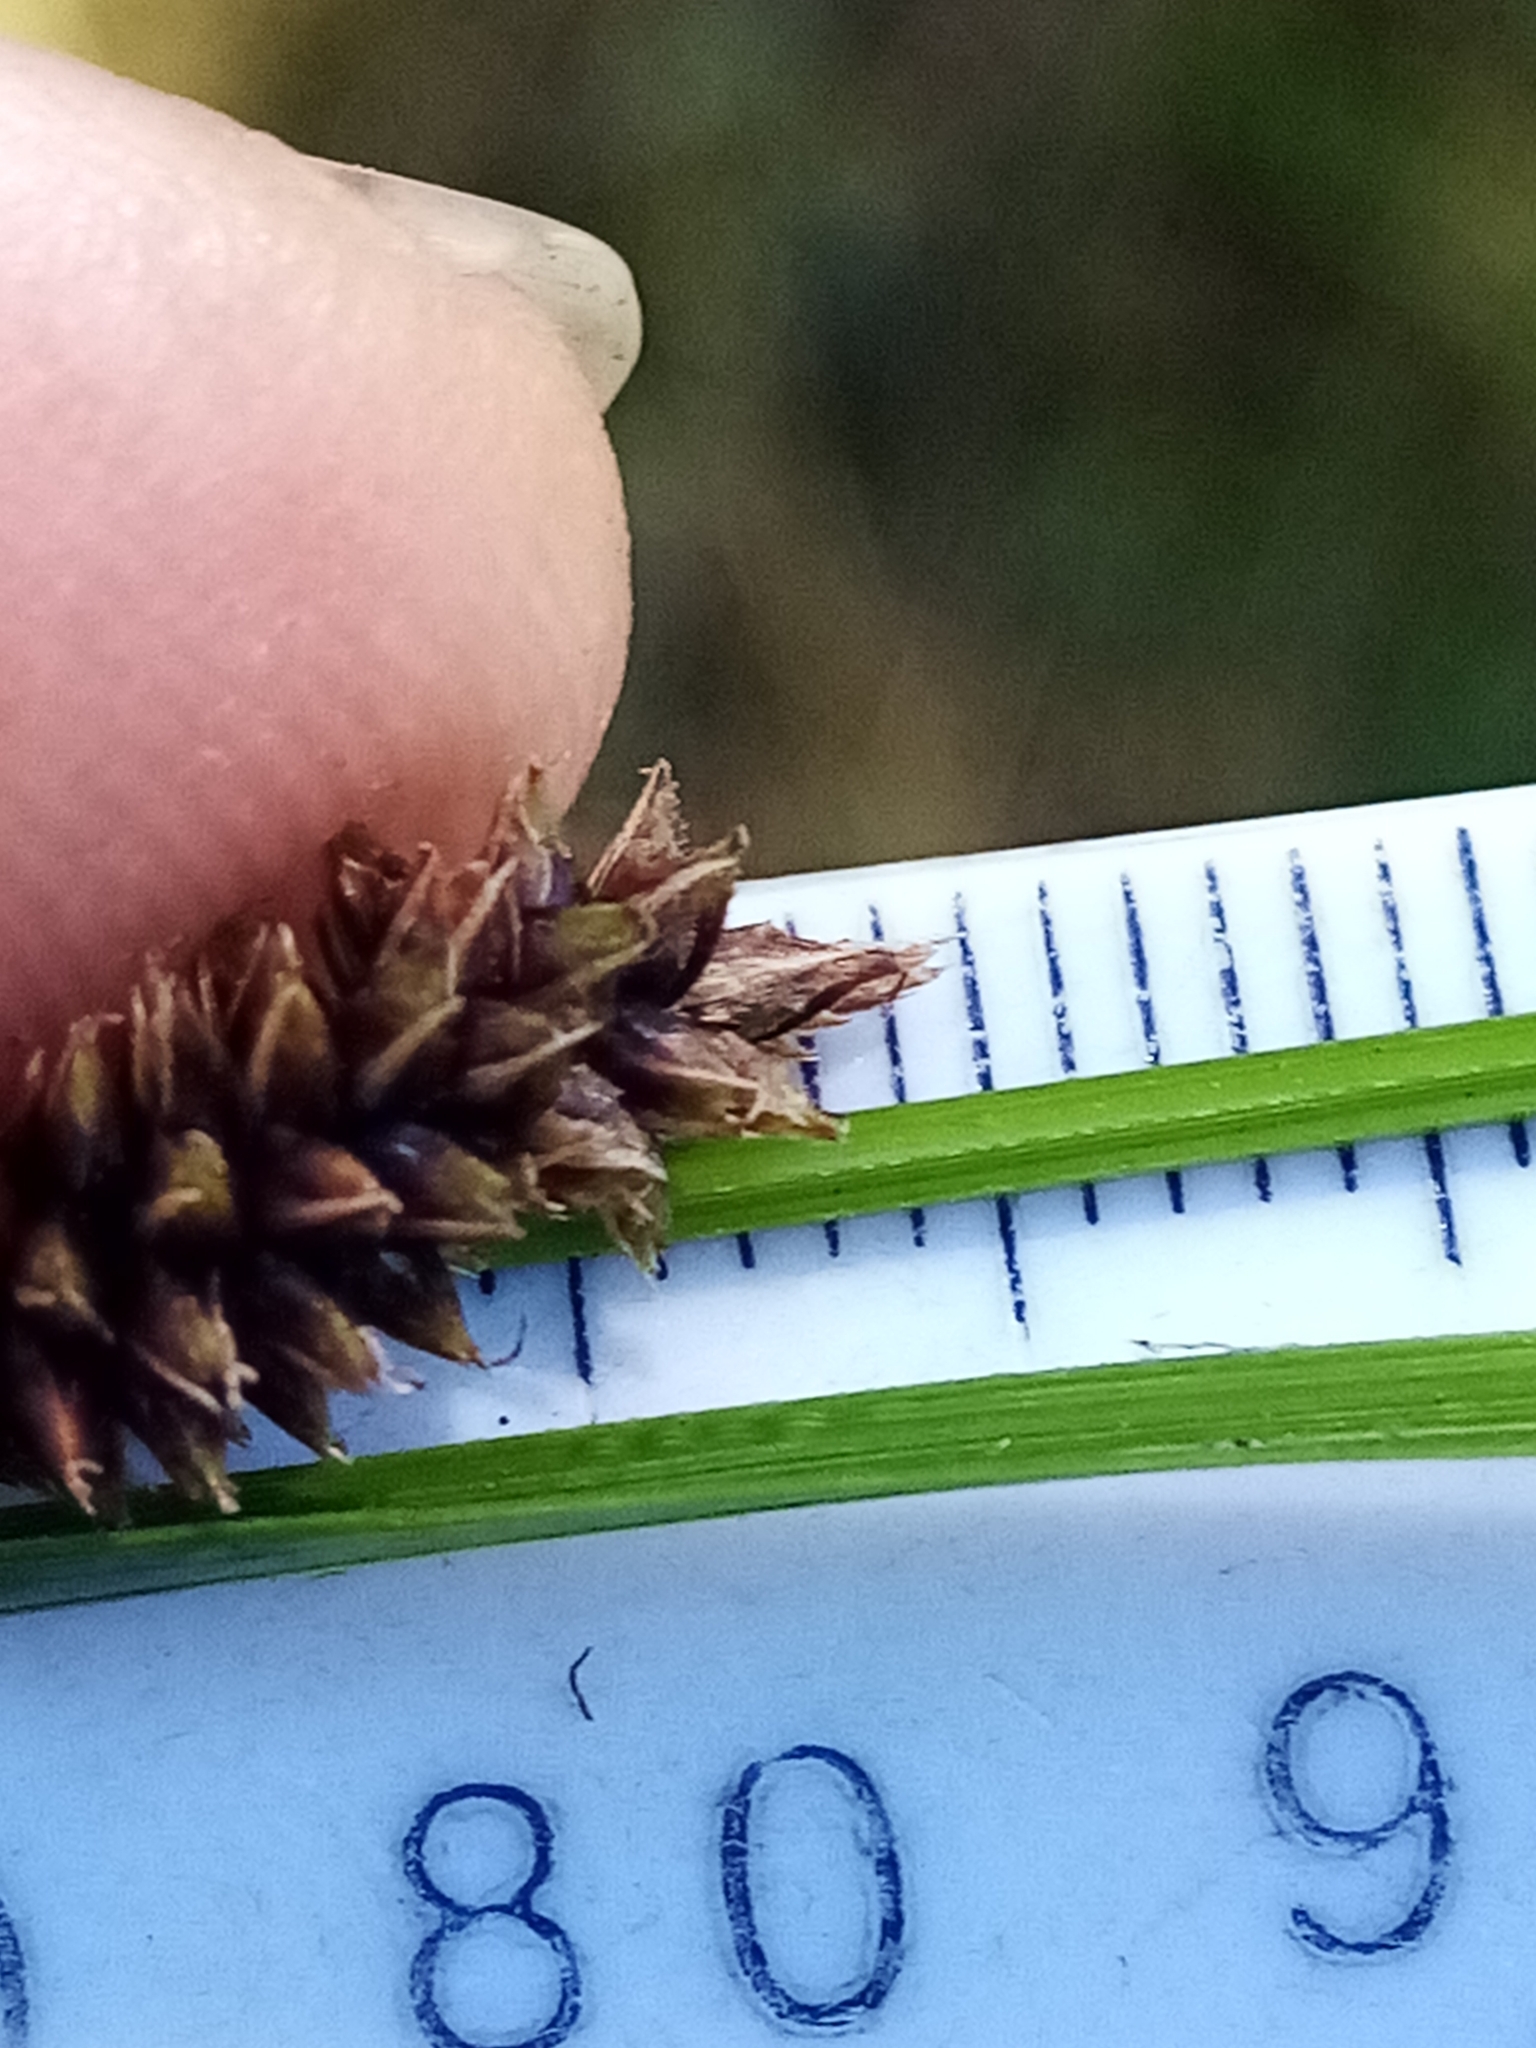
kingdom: Plantae
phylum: Tracheophyta
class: Liliopsida
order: Poales
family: Cyperaceae
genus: Carex
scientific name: Carex dissita
